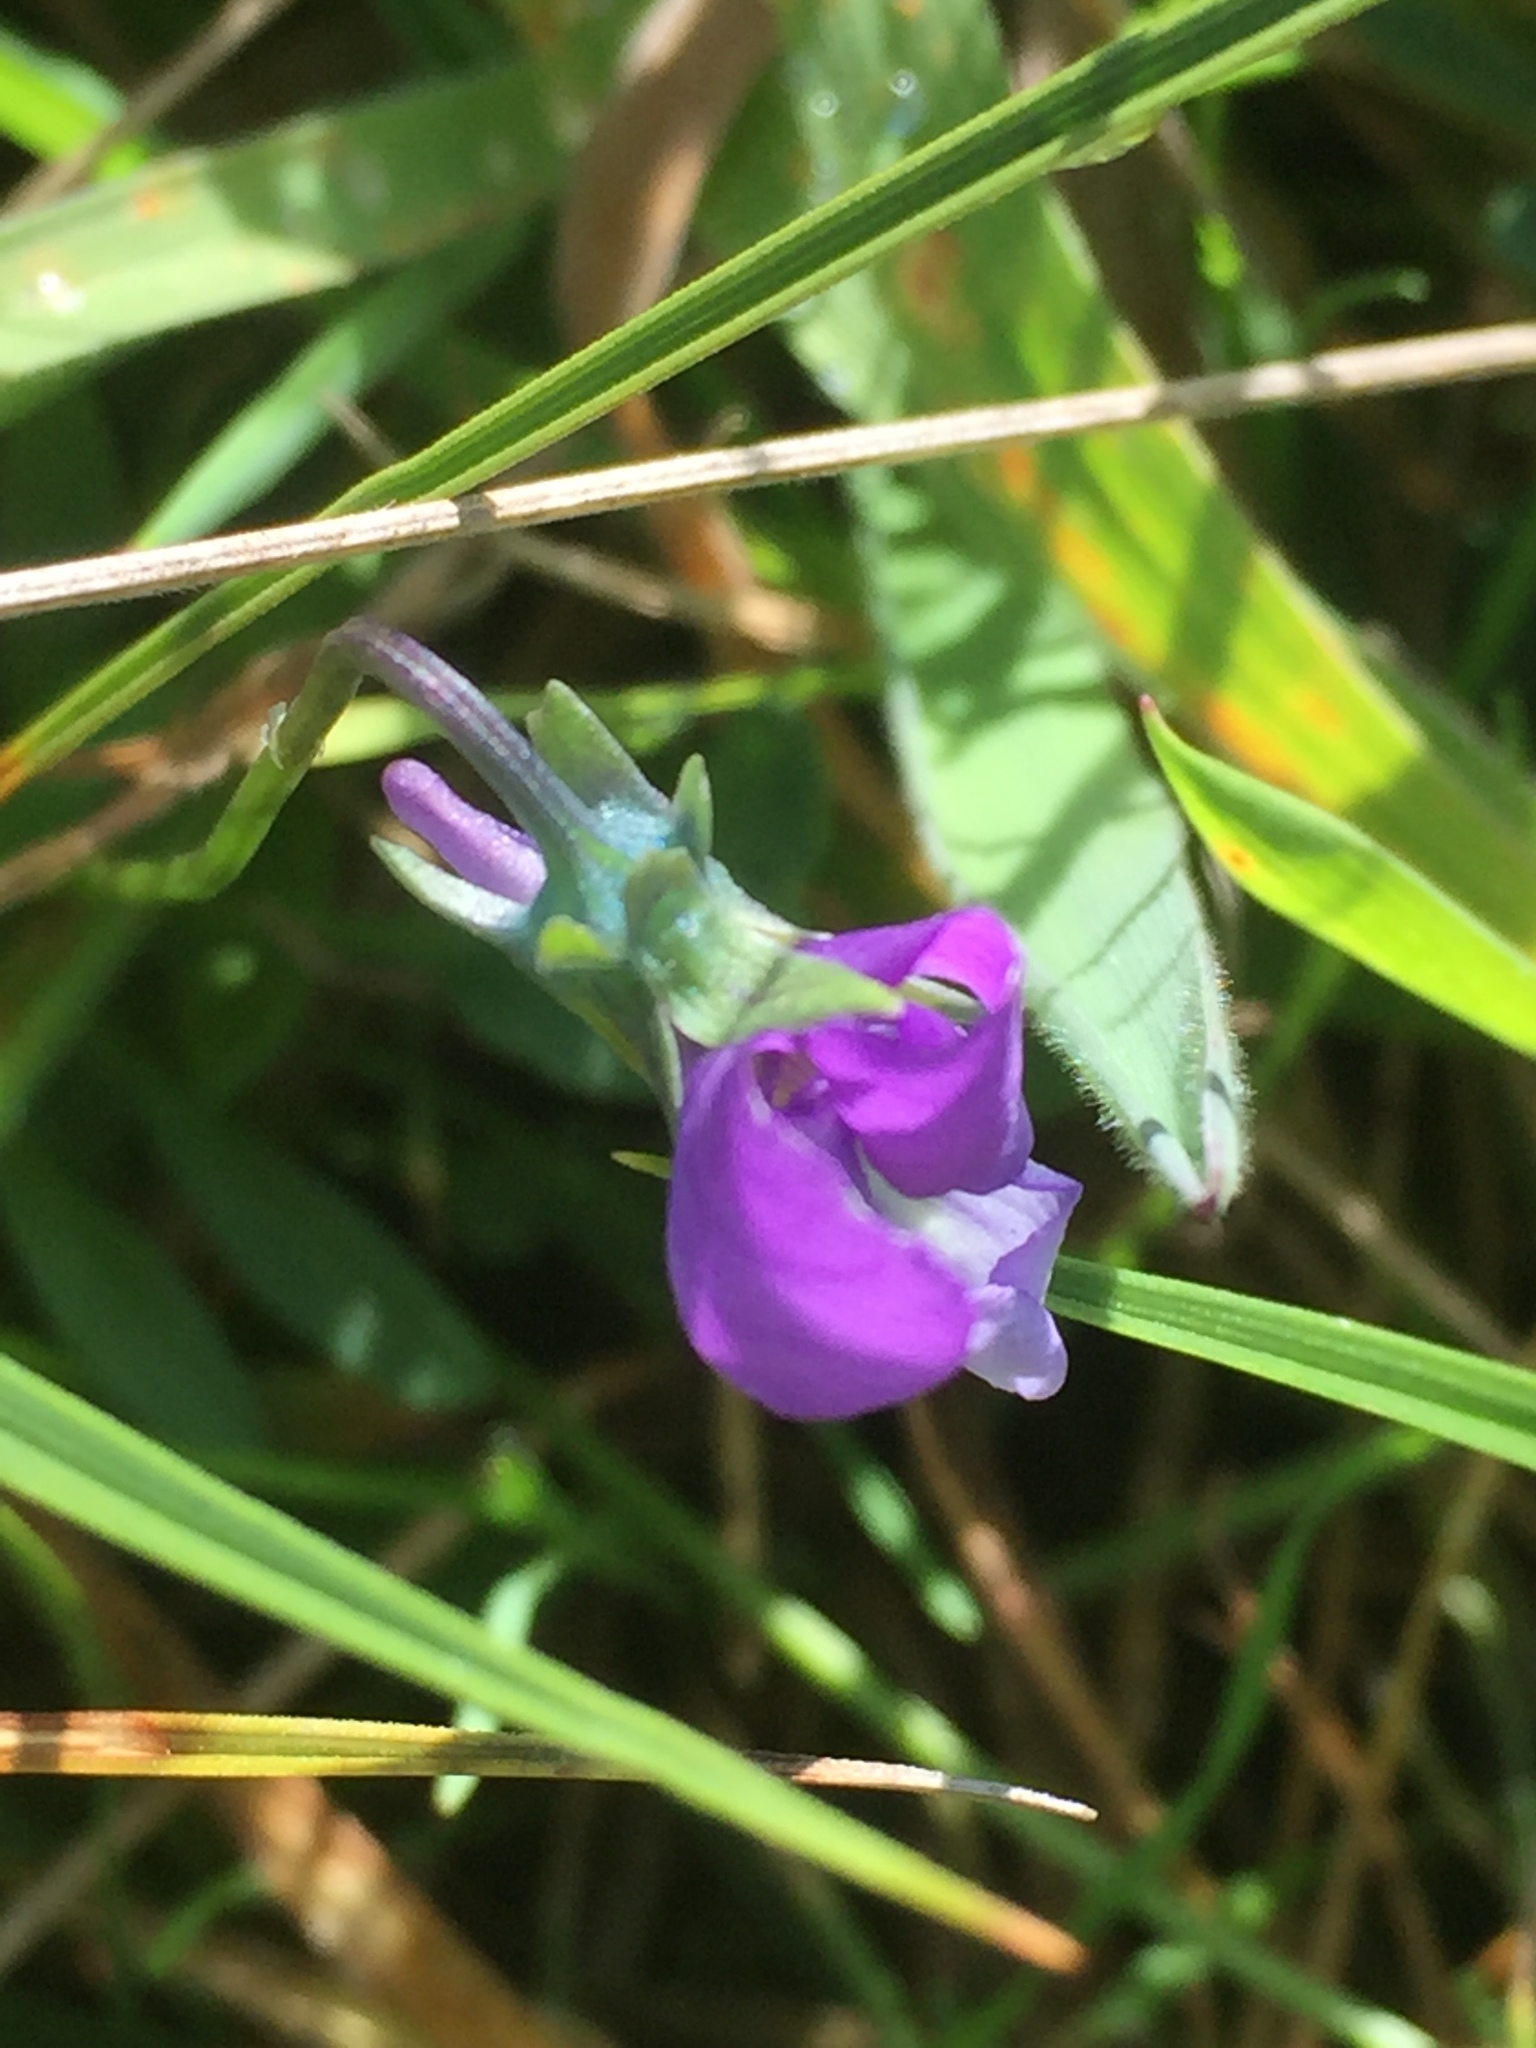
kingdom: Plantae
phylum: Tracheophyta
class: Magnoliopsida
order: Malpighiales
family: Violaceae
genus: Viola
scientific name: Viola tricolor
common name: Pansy
